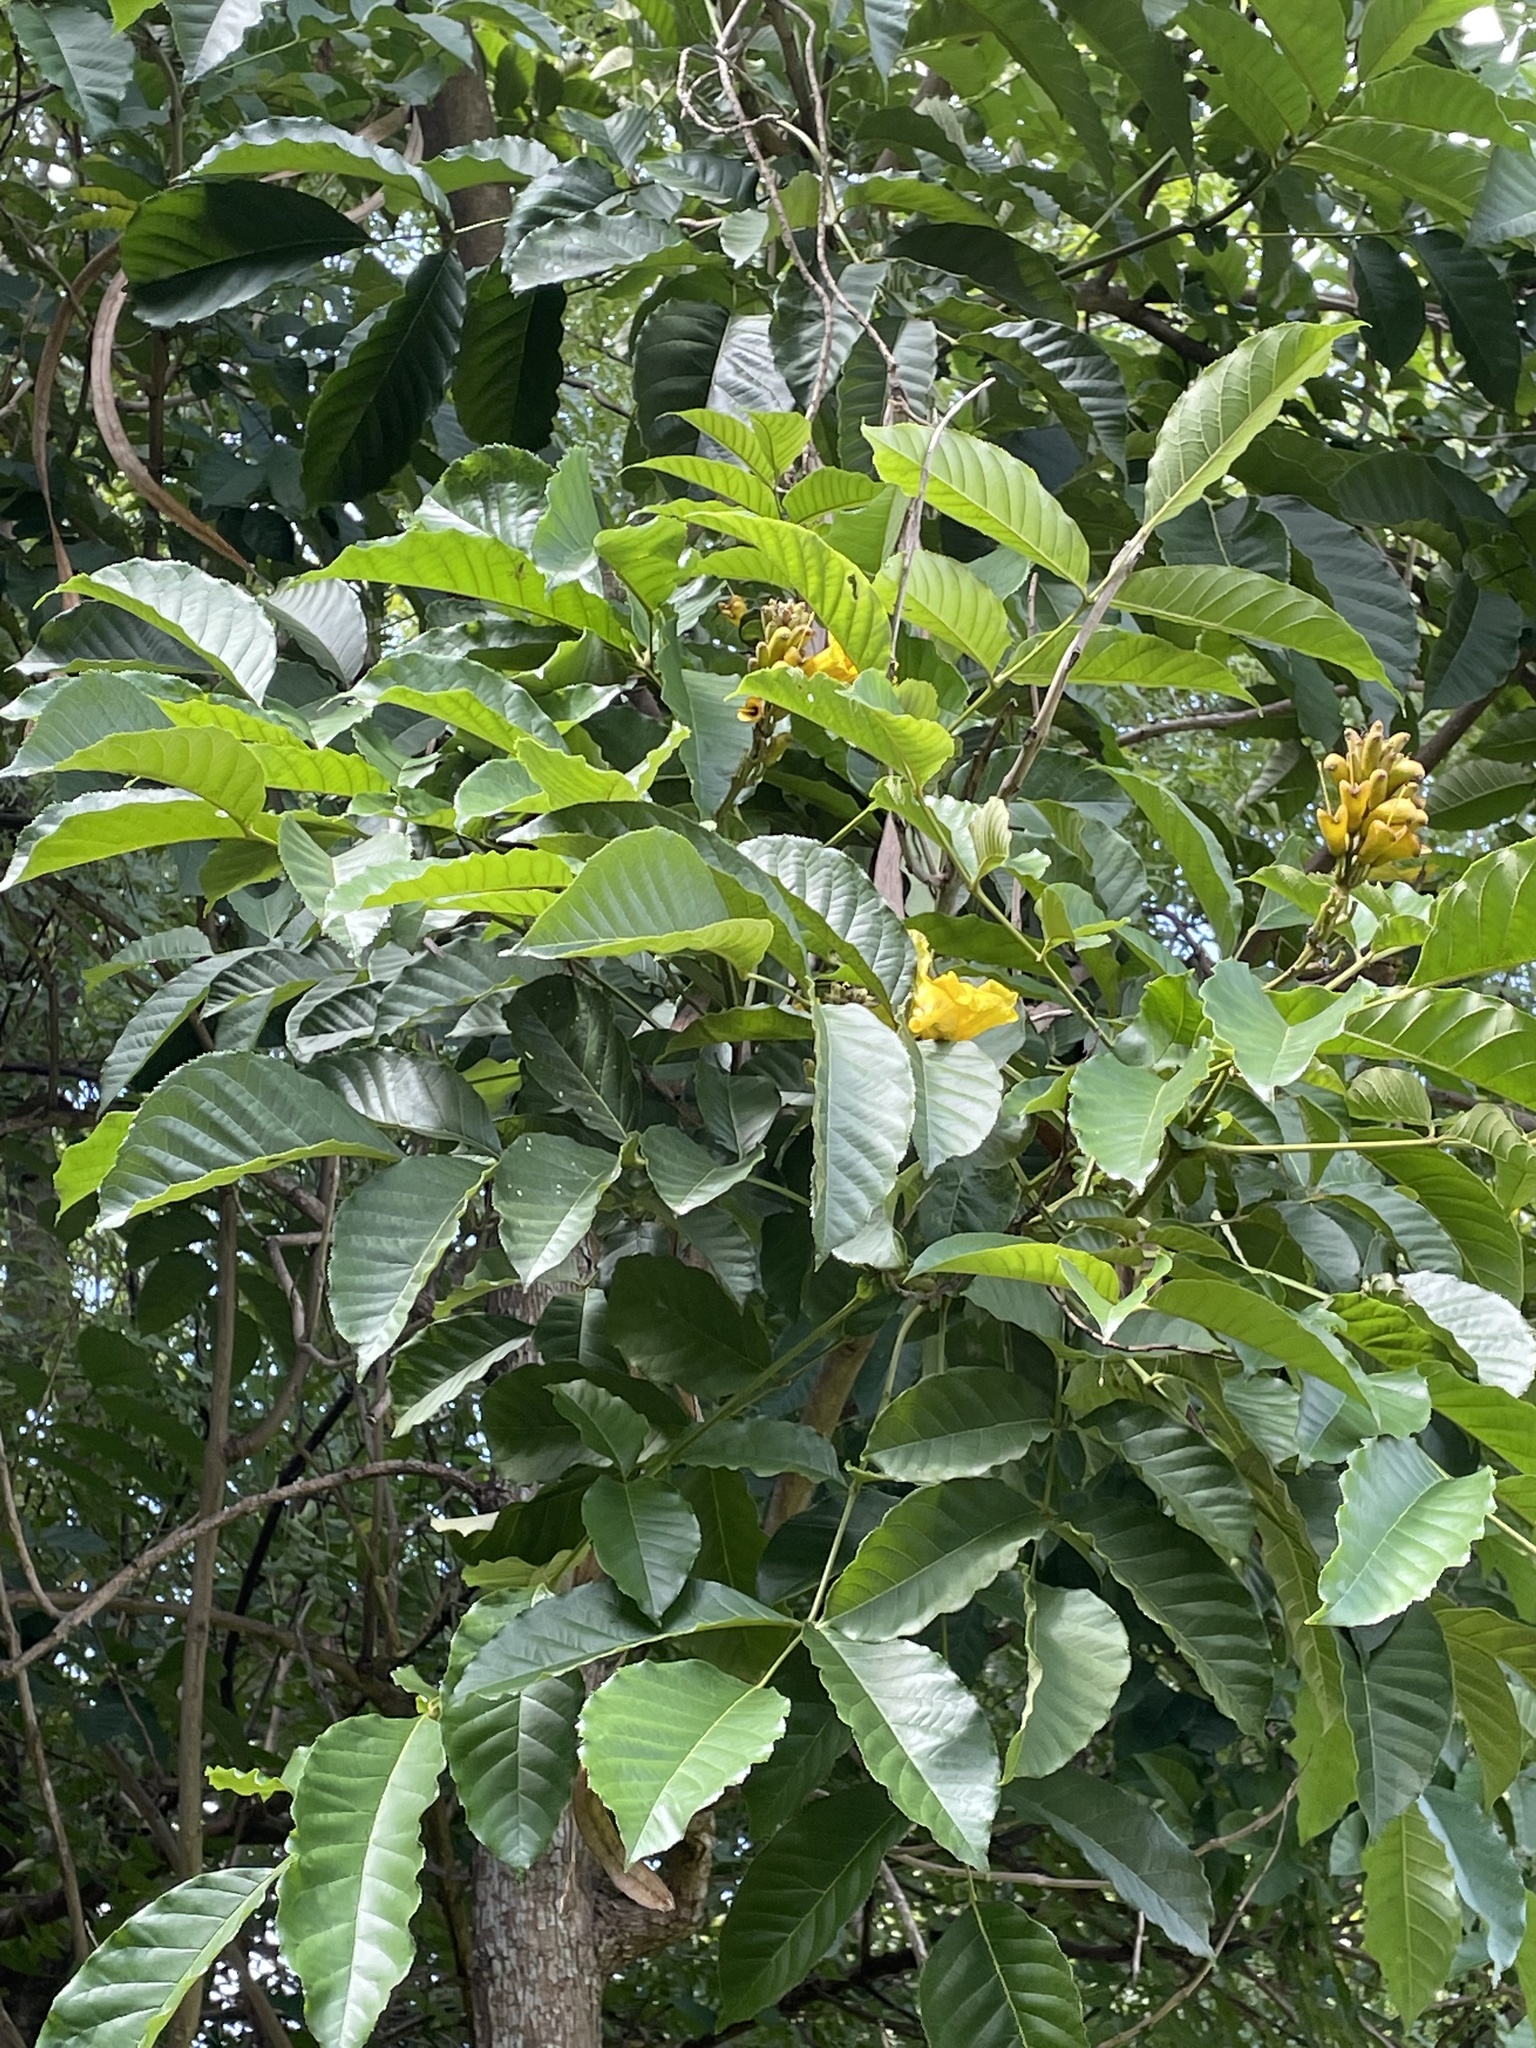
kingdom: Plantae
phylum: Tracheophyta
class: Magnoliopsida
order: Lamiales
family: Bignoniaceae
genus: Tecoma
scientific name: Tecoma stans
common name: Yellow trumpetbush
